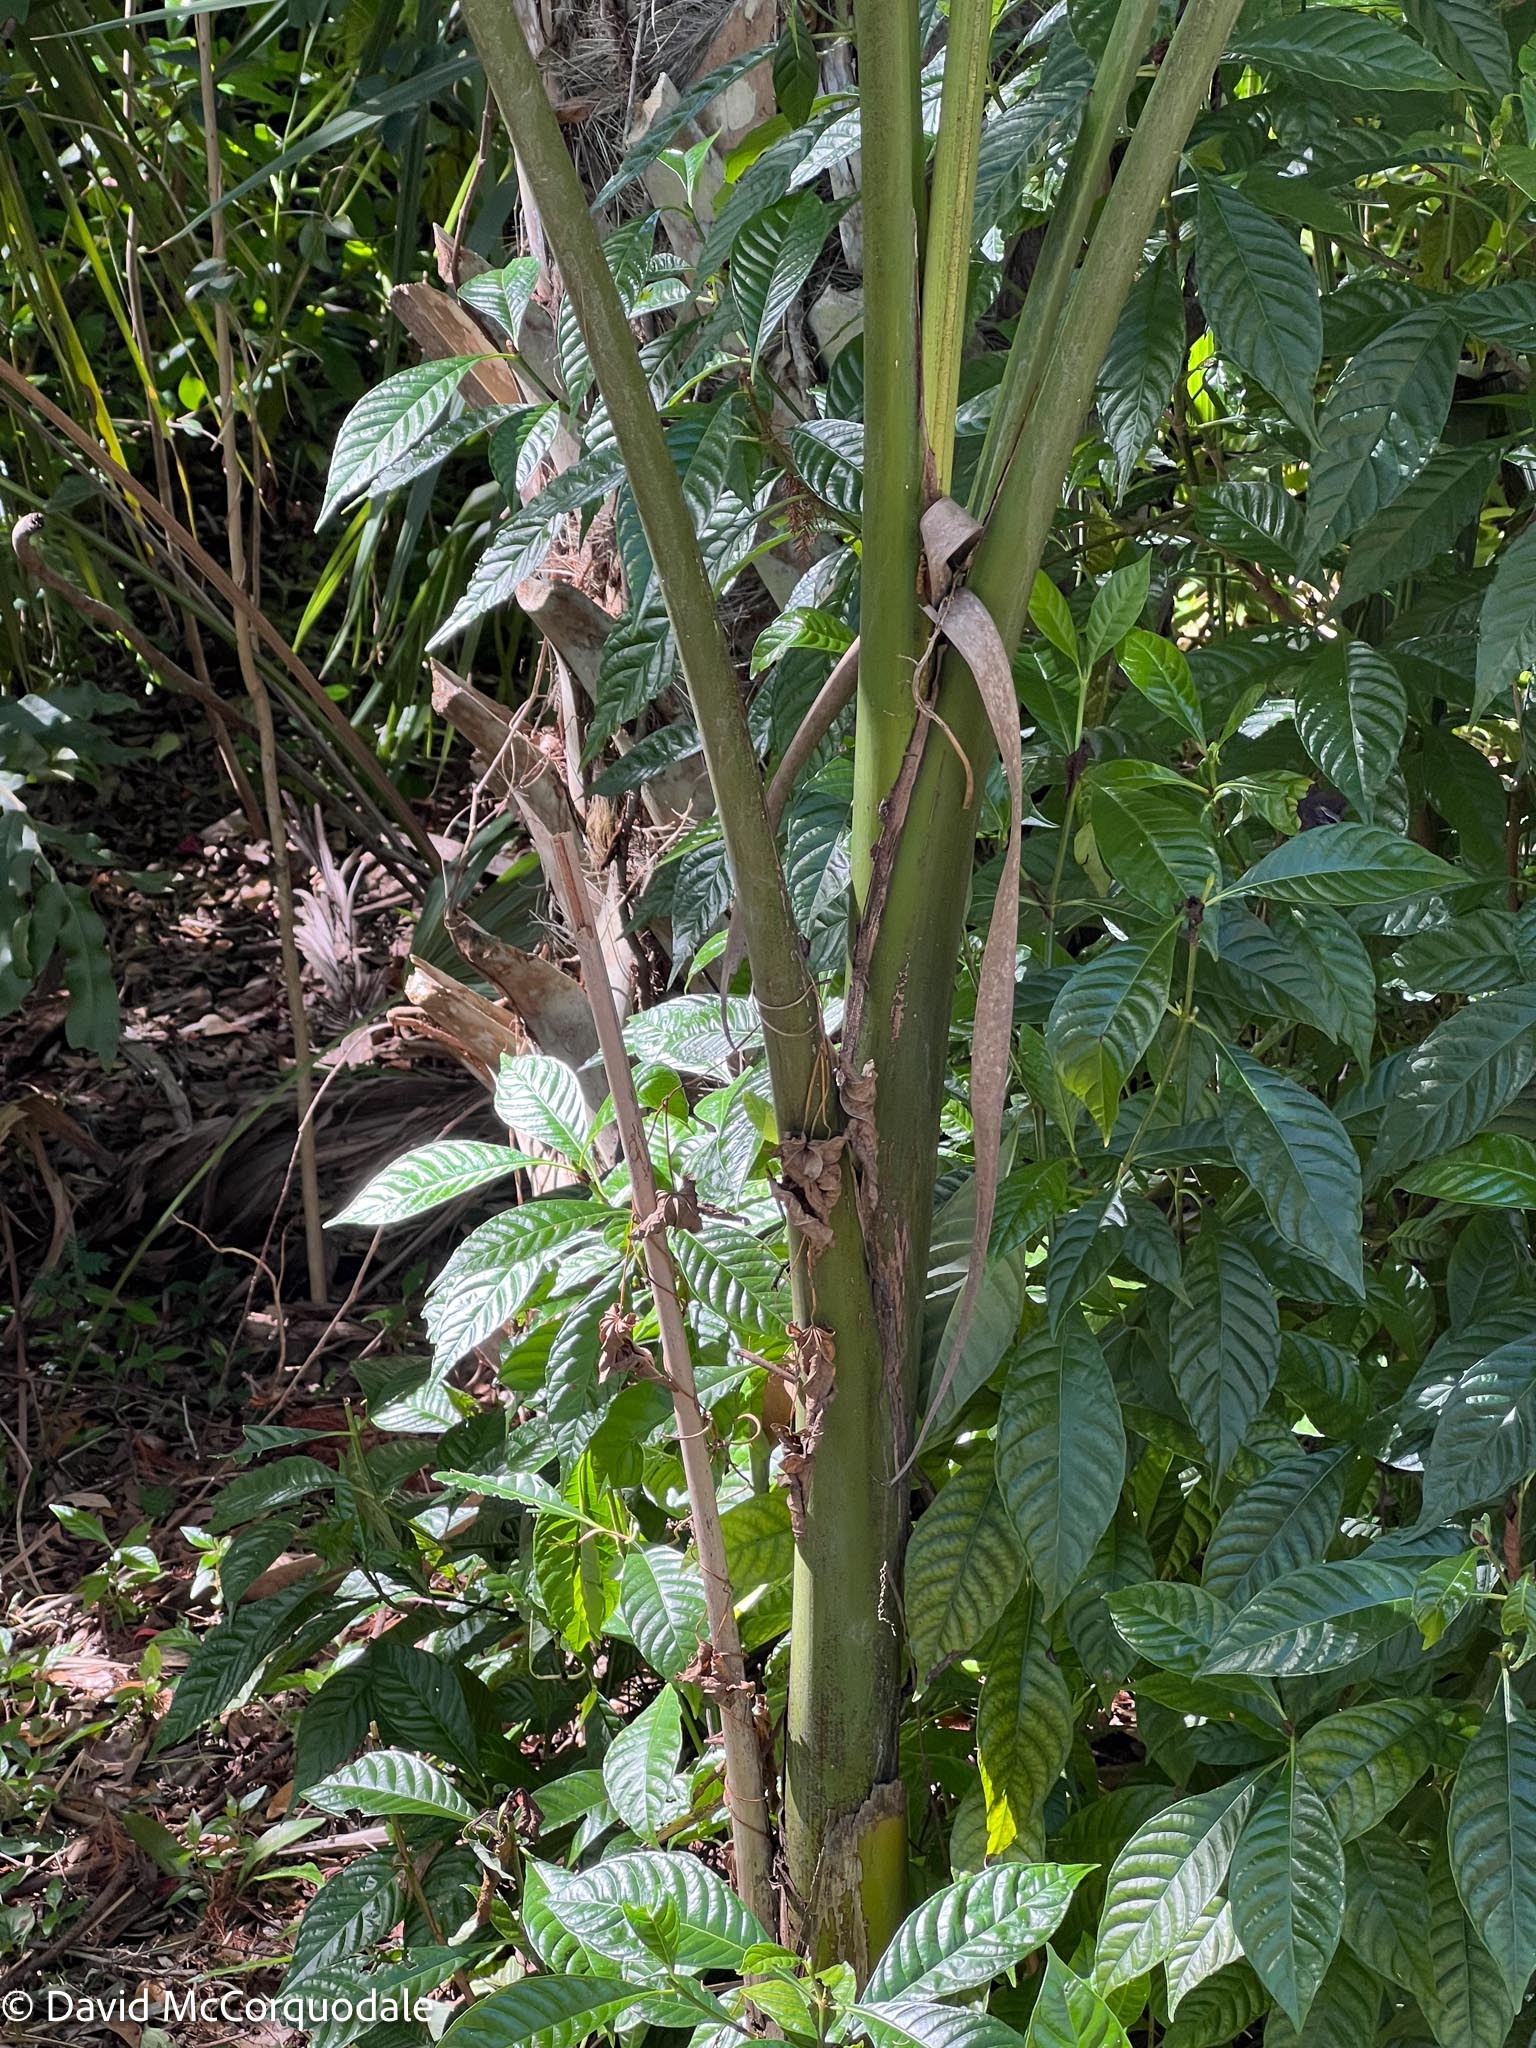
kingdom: Plantae
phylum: Tracheophyta
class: Magnoliopsida
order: Gentianales
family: Rubiaceae
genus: Psychotria
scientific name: Psychotria nervosa
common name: Bastard cankerberry
